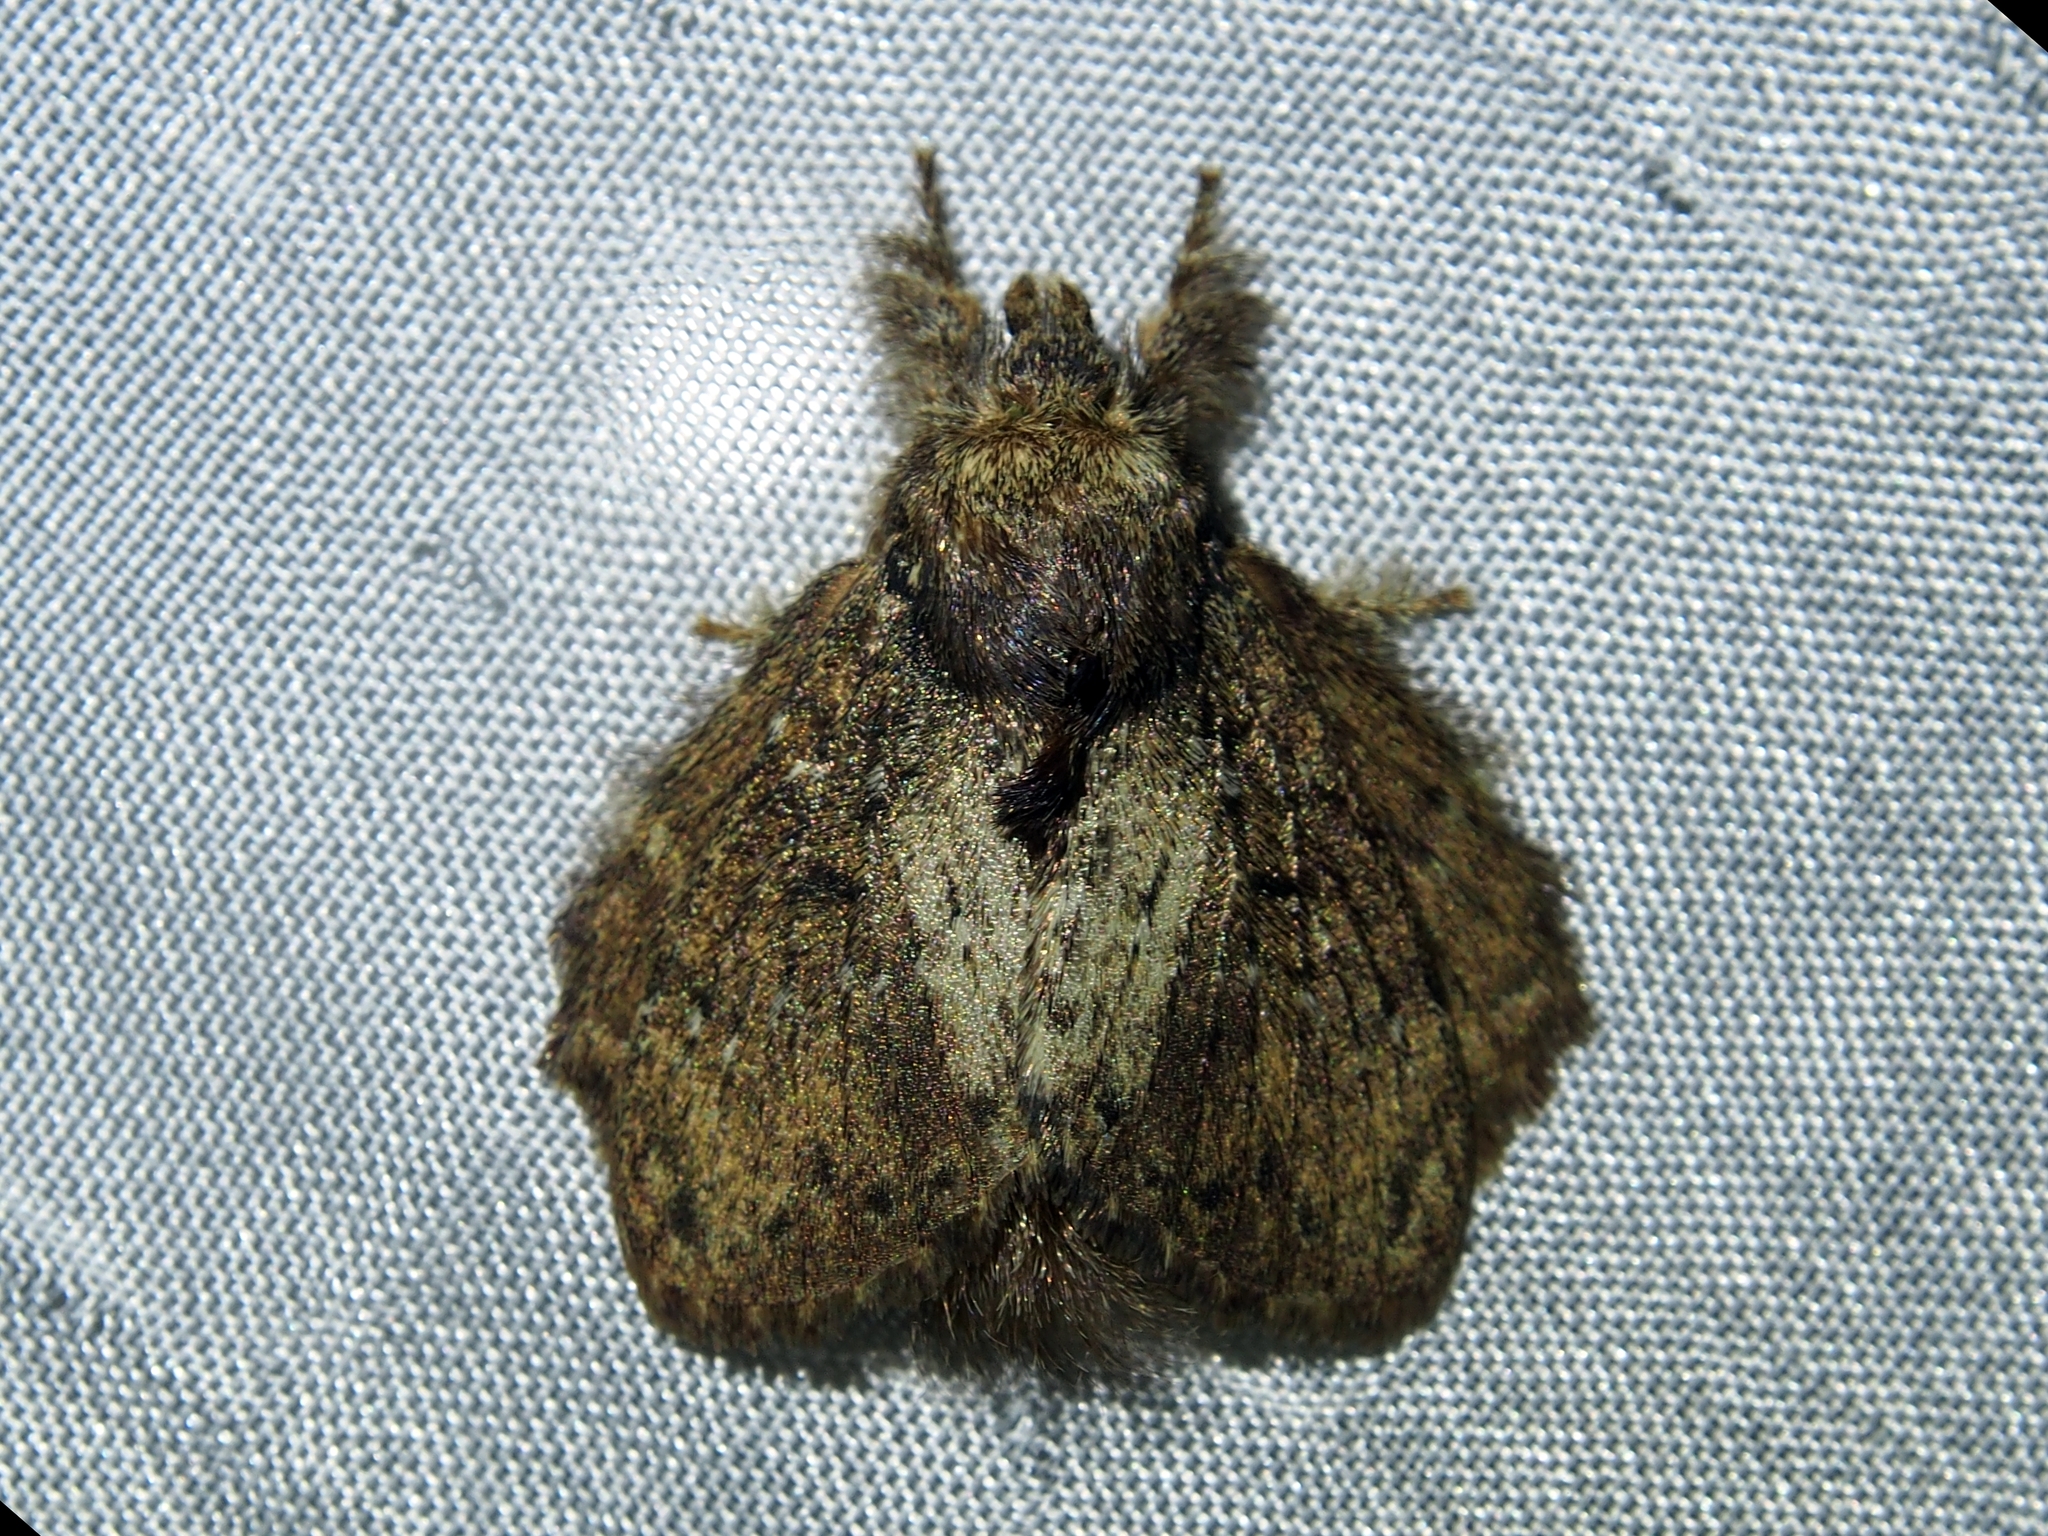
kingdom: Animalia
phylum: Arthropoda
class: Insecta
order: Lepidoptera
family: Lasiocampidae
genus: Euglyphis
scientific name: Euglyphis phyllis
